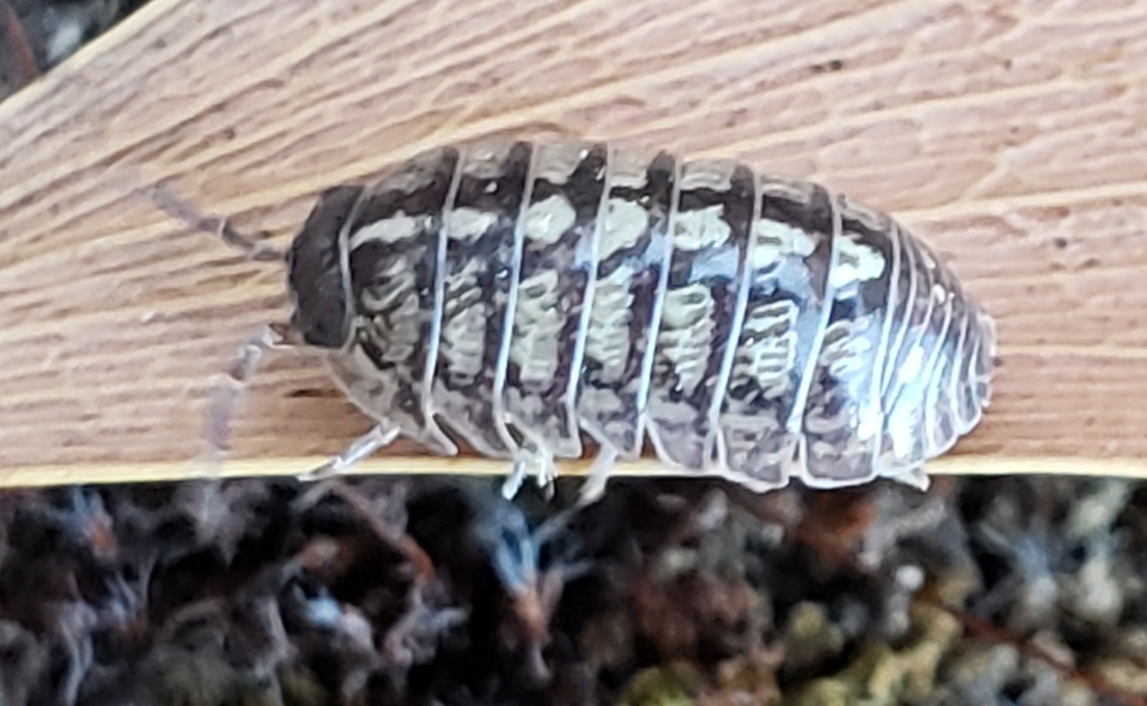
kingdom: Animalia
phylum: Arthropoda
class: Malacostraca
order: Isopoda
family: Armadillidiidae
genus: Armadillidium
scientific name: Armadillidium vulgare
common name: Common pill woodlouse
